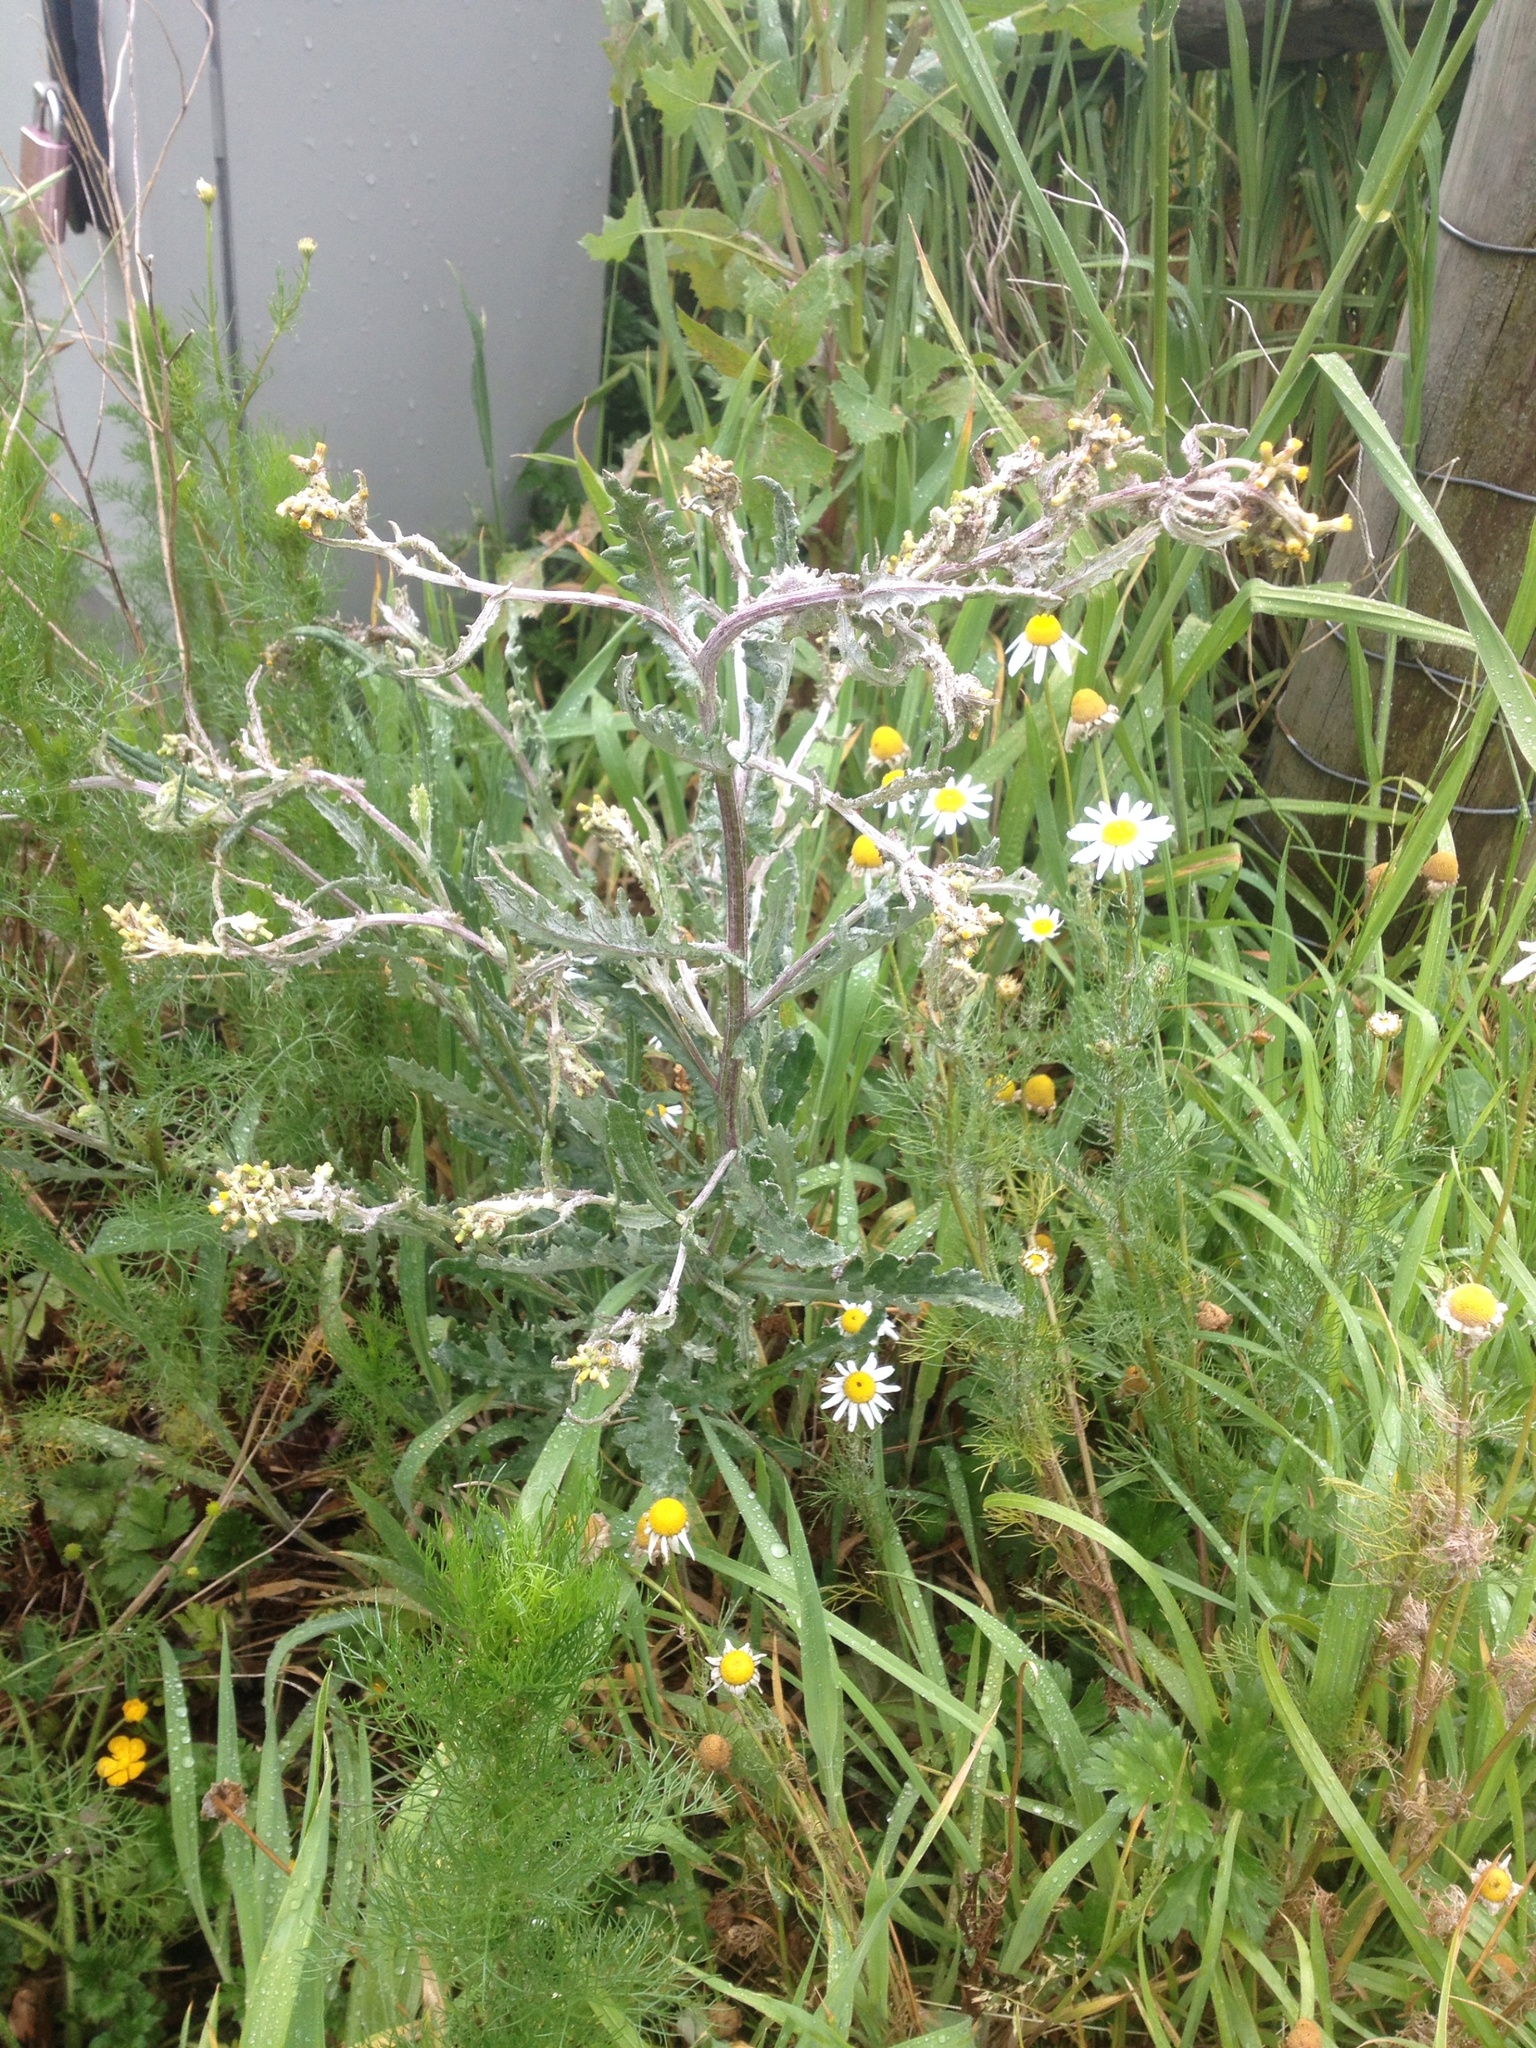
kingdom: Plantae
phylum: Tracheophyta
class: Magnoliopsida
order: Asterales
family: Asteraceae
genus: Senecio
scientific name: Senecio glomeratus
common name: Cutleaf burnweed
